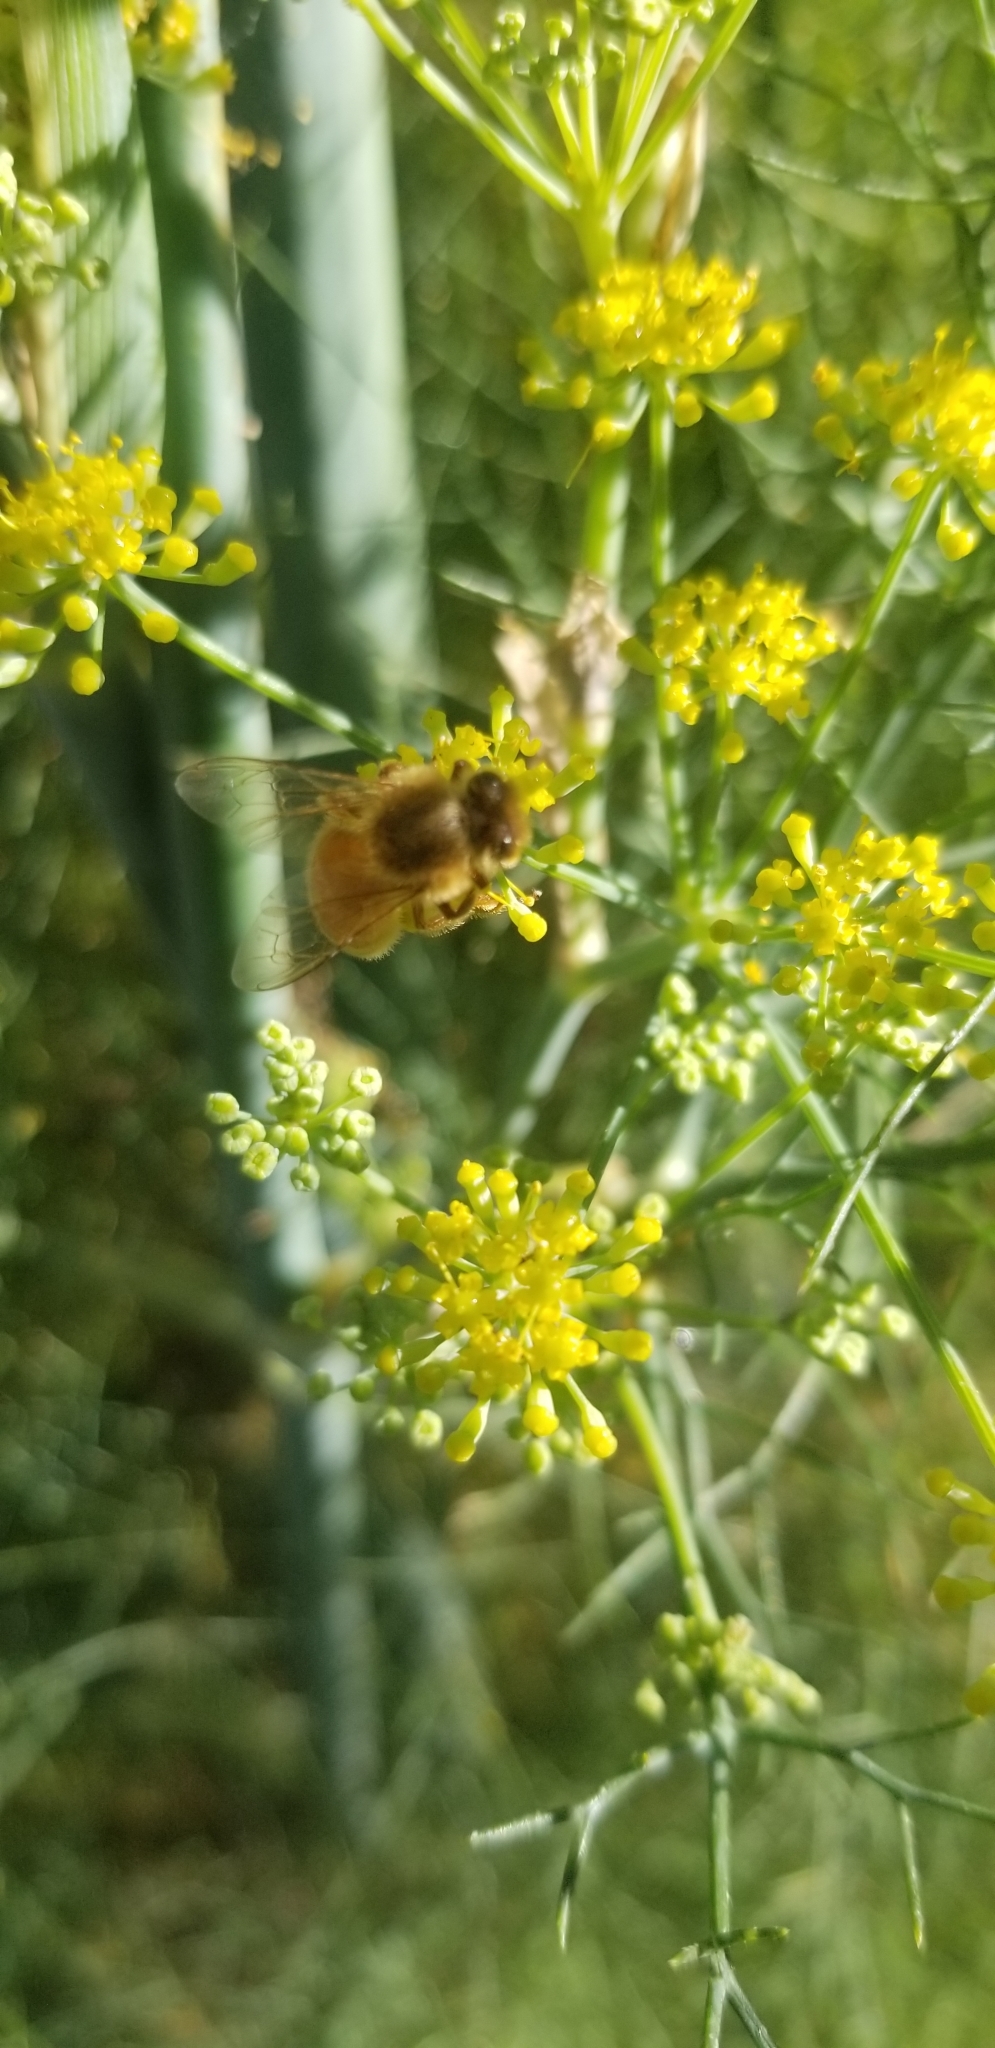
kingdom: Animalia
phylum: Arthropoda
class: Insecta
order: Hymenoptera
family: Apidae
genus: Apis
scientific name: Apis mellifera
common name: Honey bee
